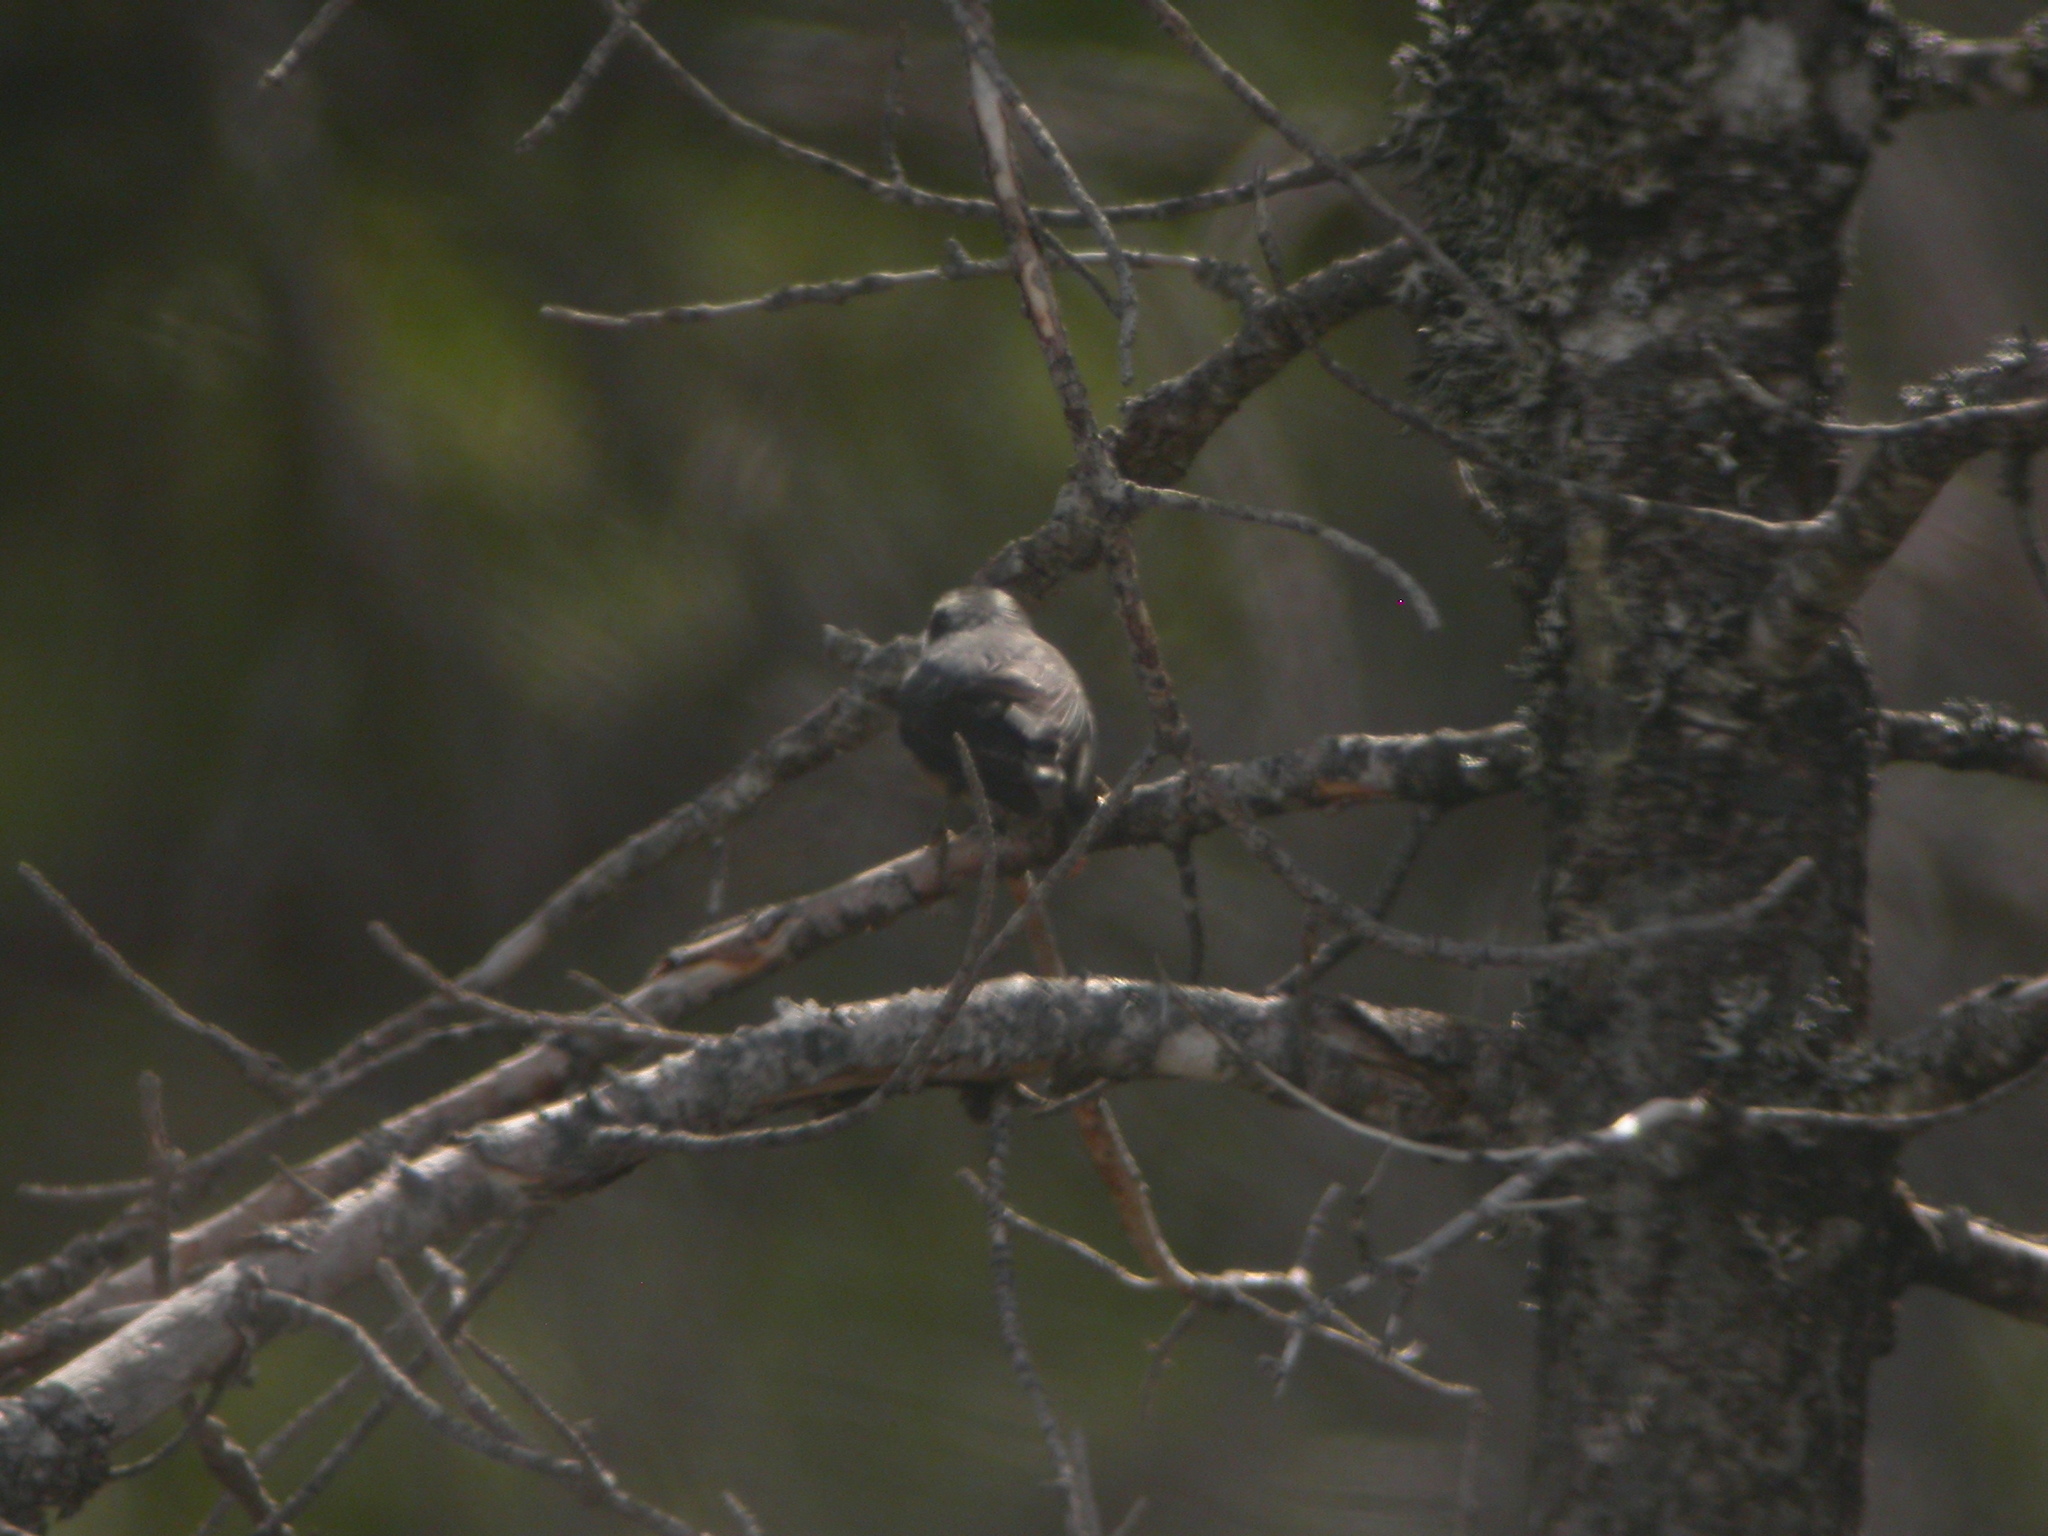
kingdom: Animalia
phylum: Chordata
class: Aves
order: Passeriformes
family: Sittidae
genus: Sitta
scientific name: Sitta canadensis
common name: Red-breasted nuthatch
